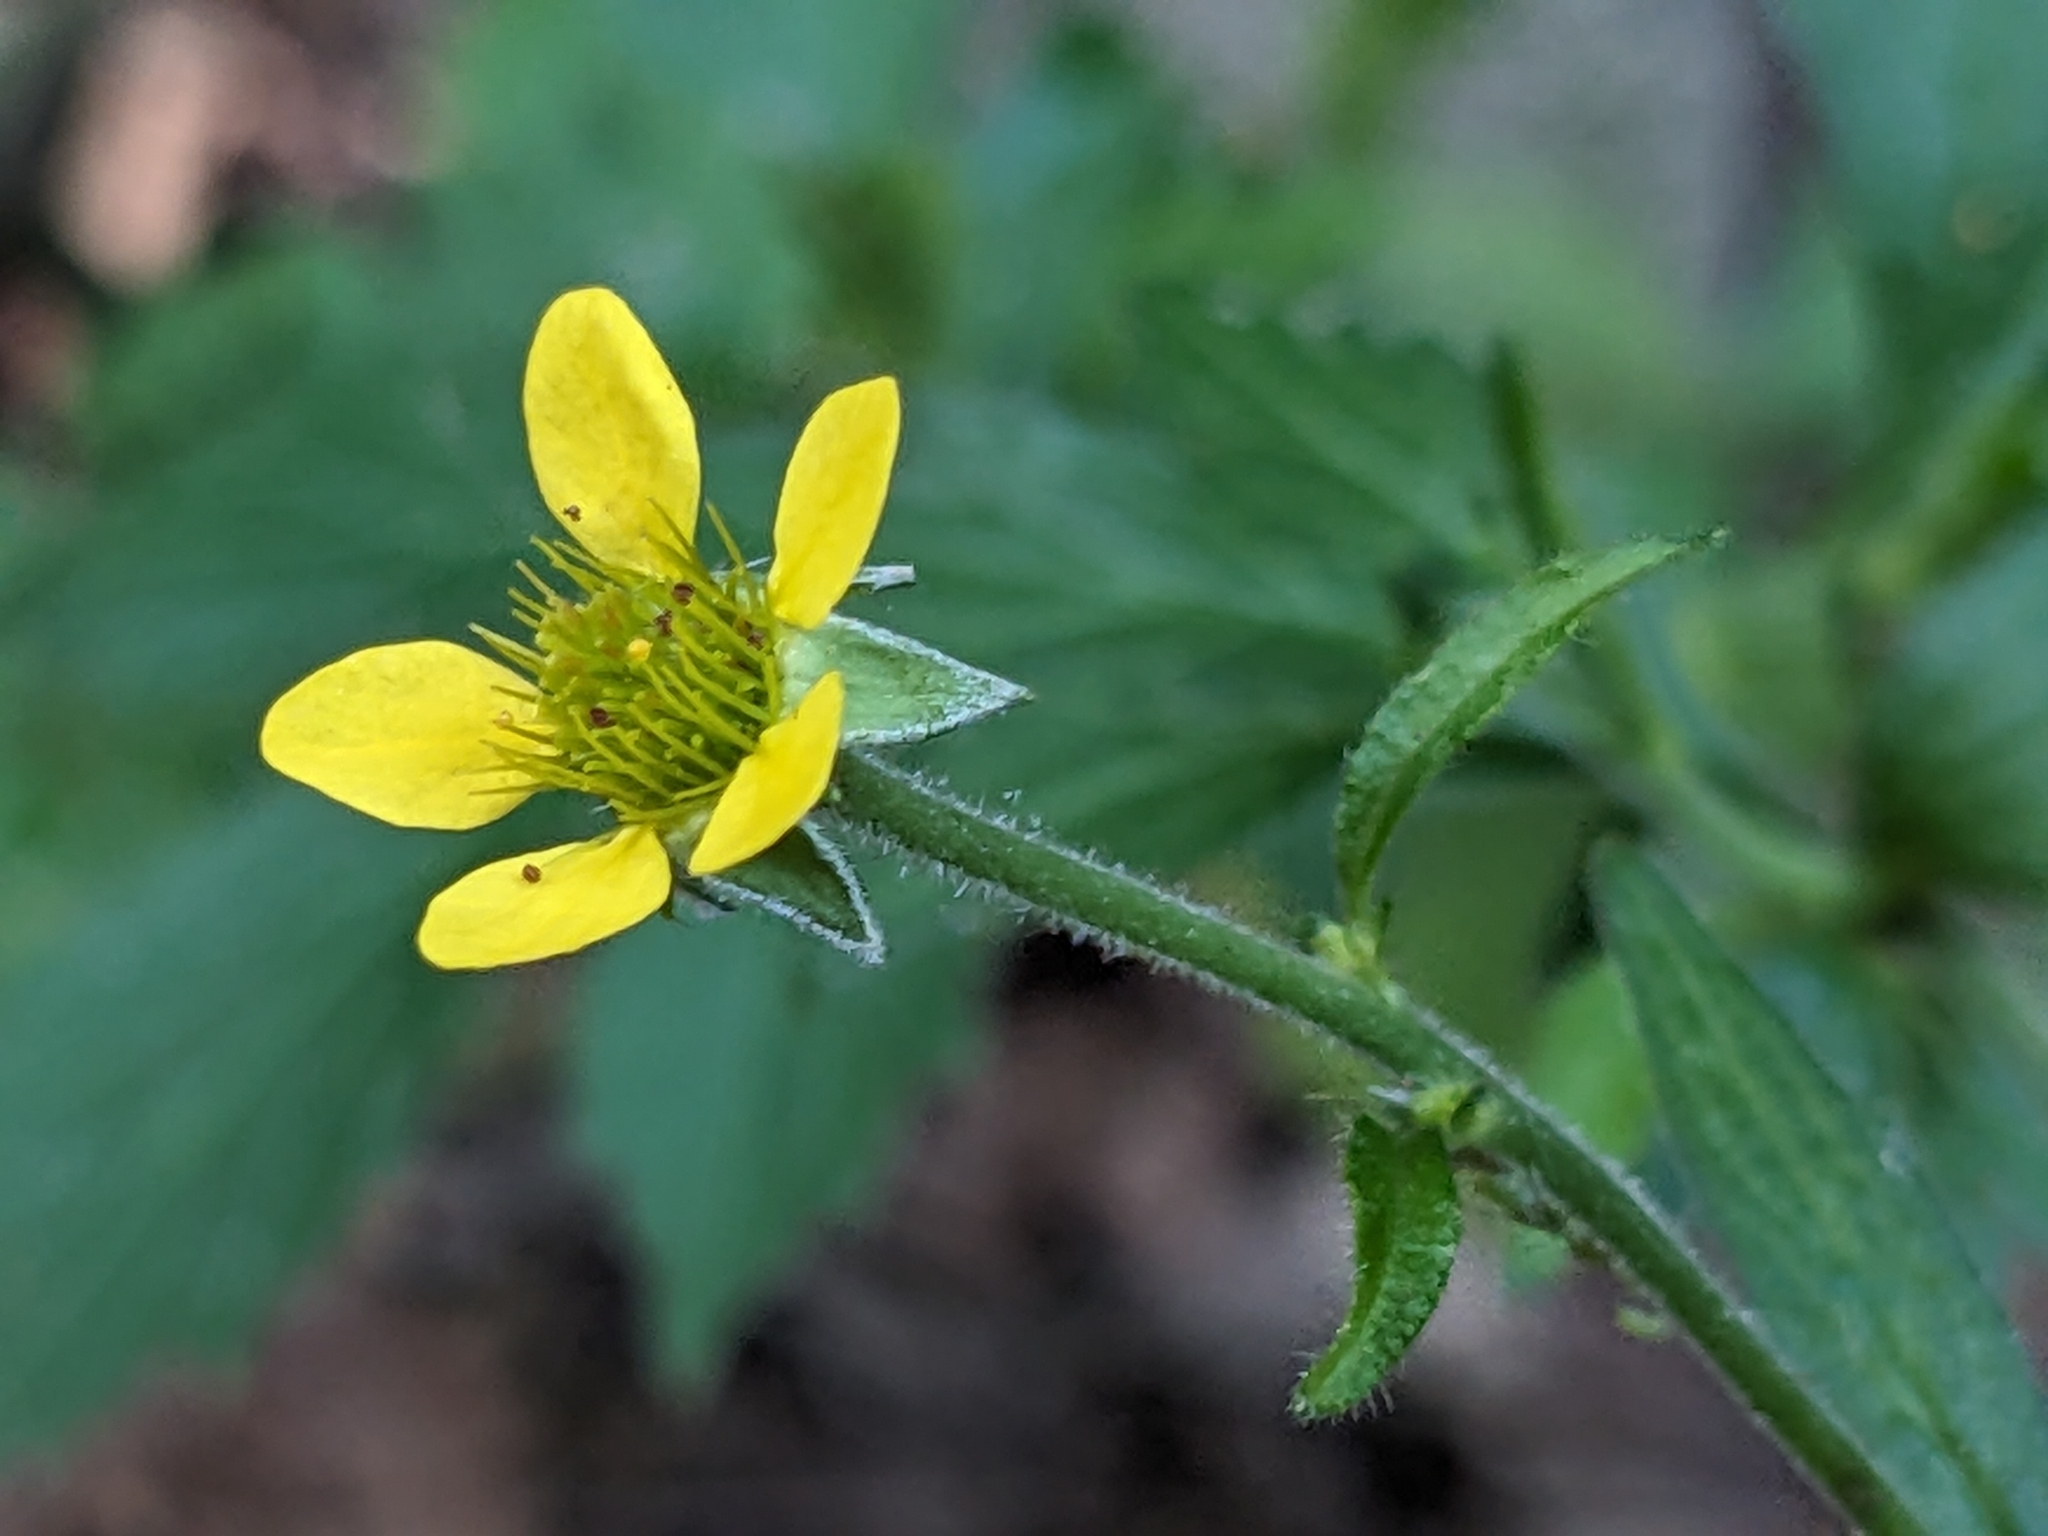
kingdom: Plantae
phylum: Tracheophyta
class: Magnoliopsida
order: Rosales
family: Rosaceae
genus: Geum
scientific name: Geum urbanum
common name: Wood avens
